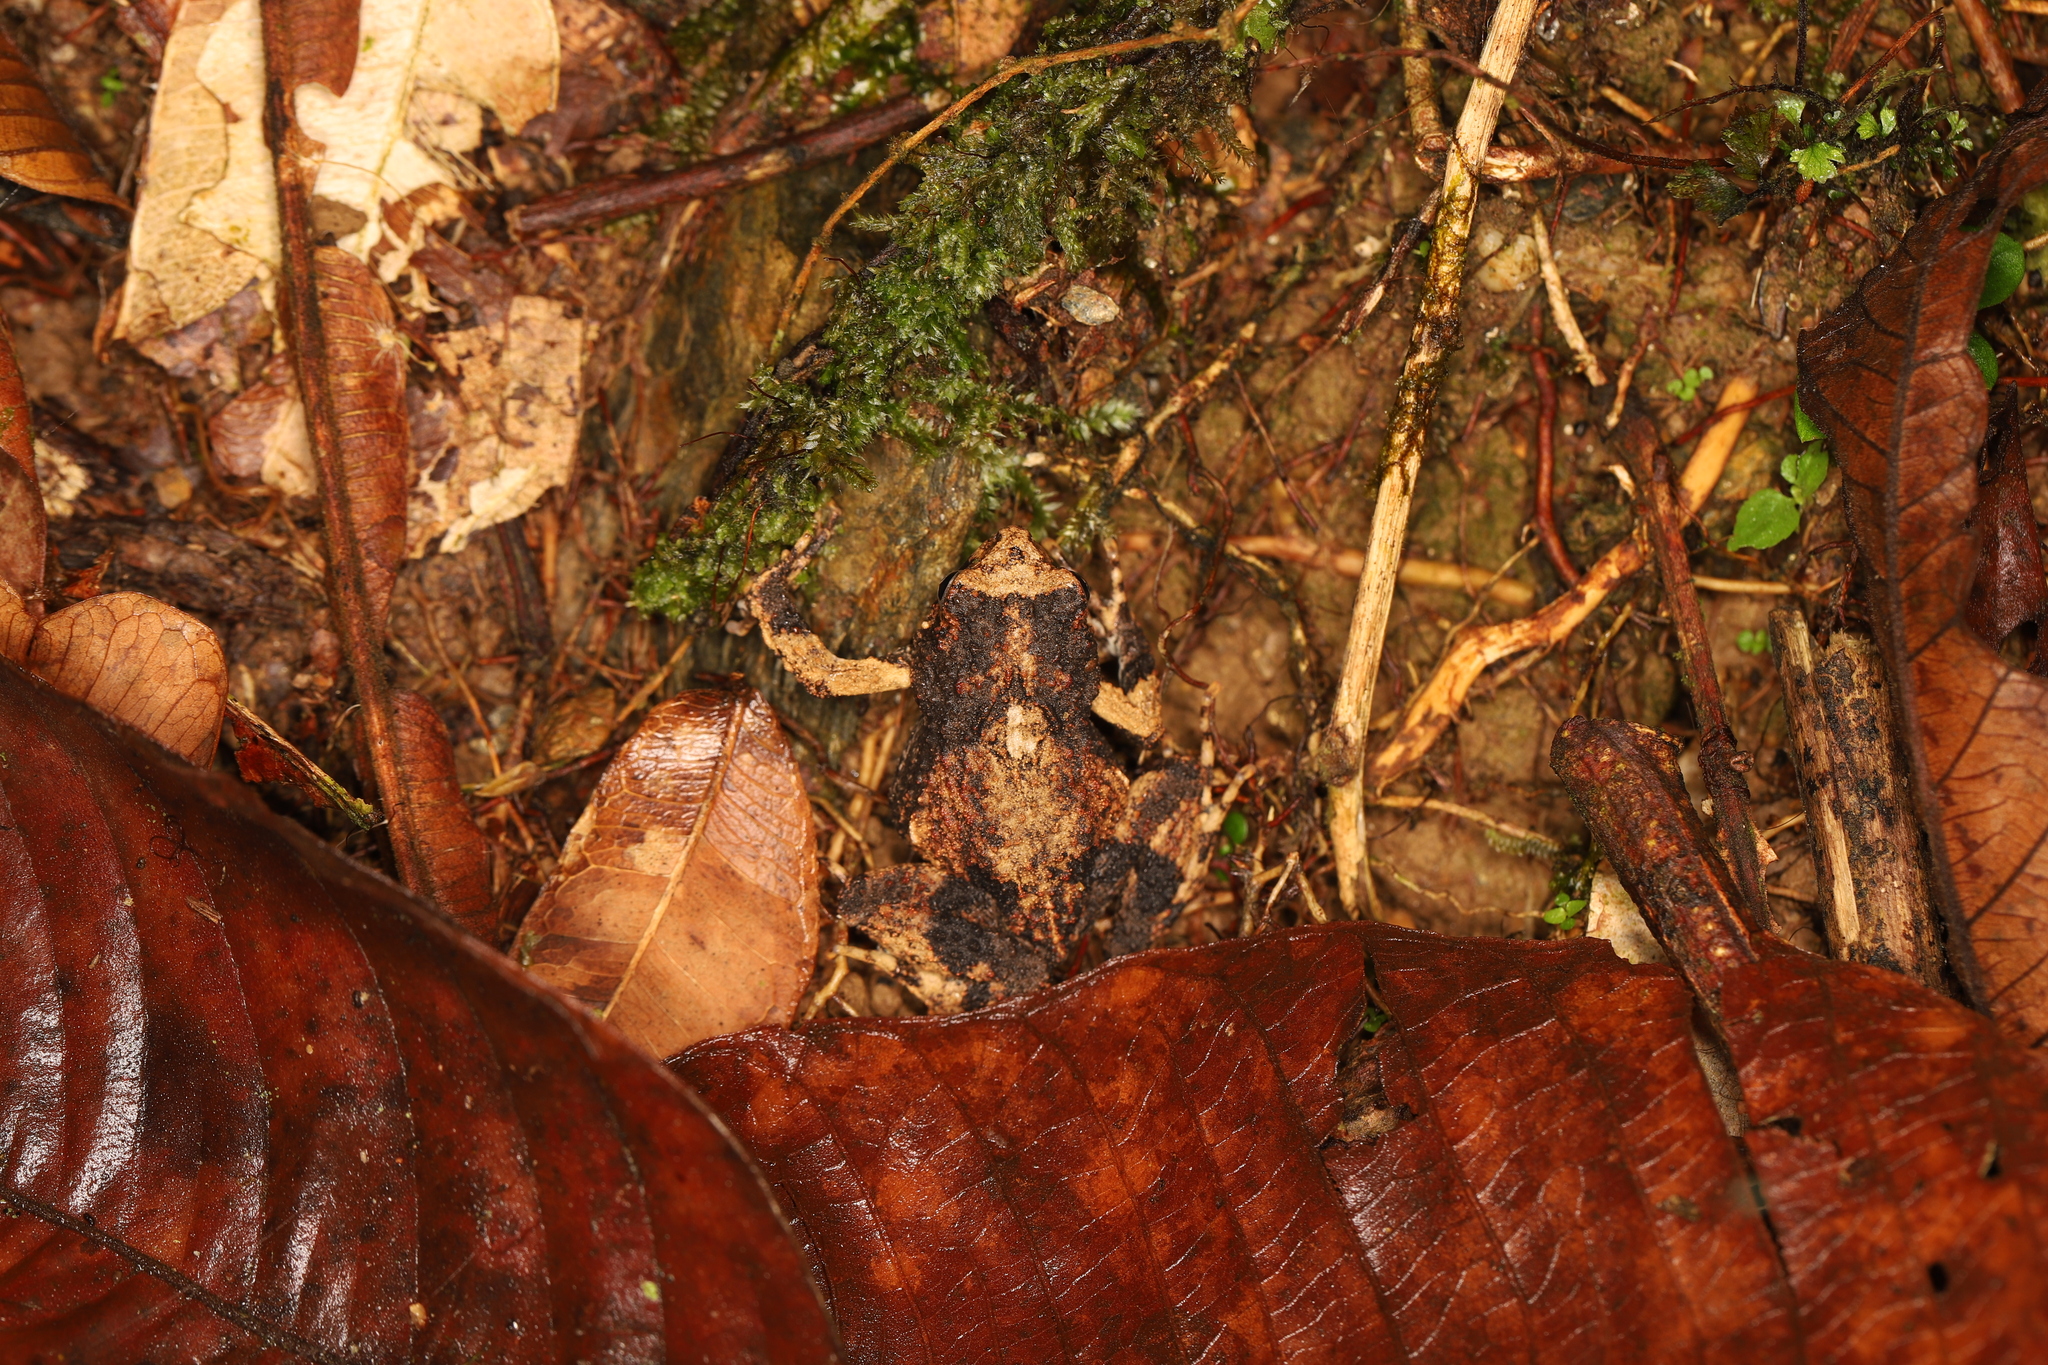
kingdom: Animalia
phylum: Chordata
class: Amphibia
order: Anura
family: Leptodactylidae
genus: Engystomops
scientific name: Engystomops pustulosus
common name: Tungara frog
